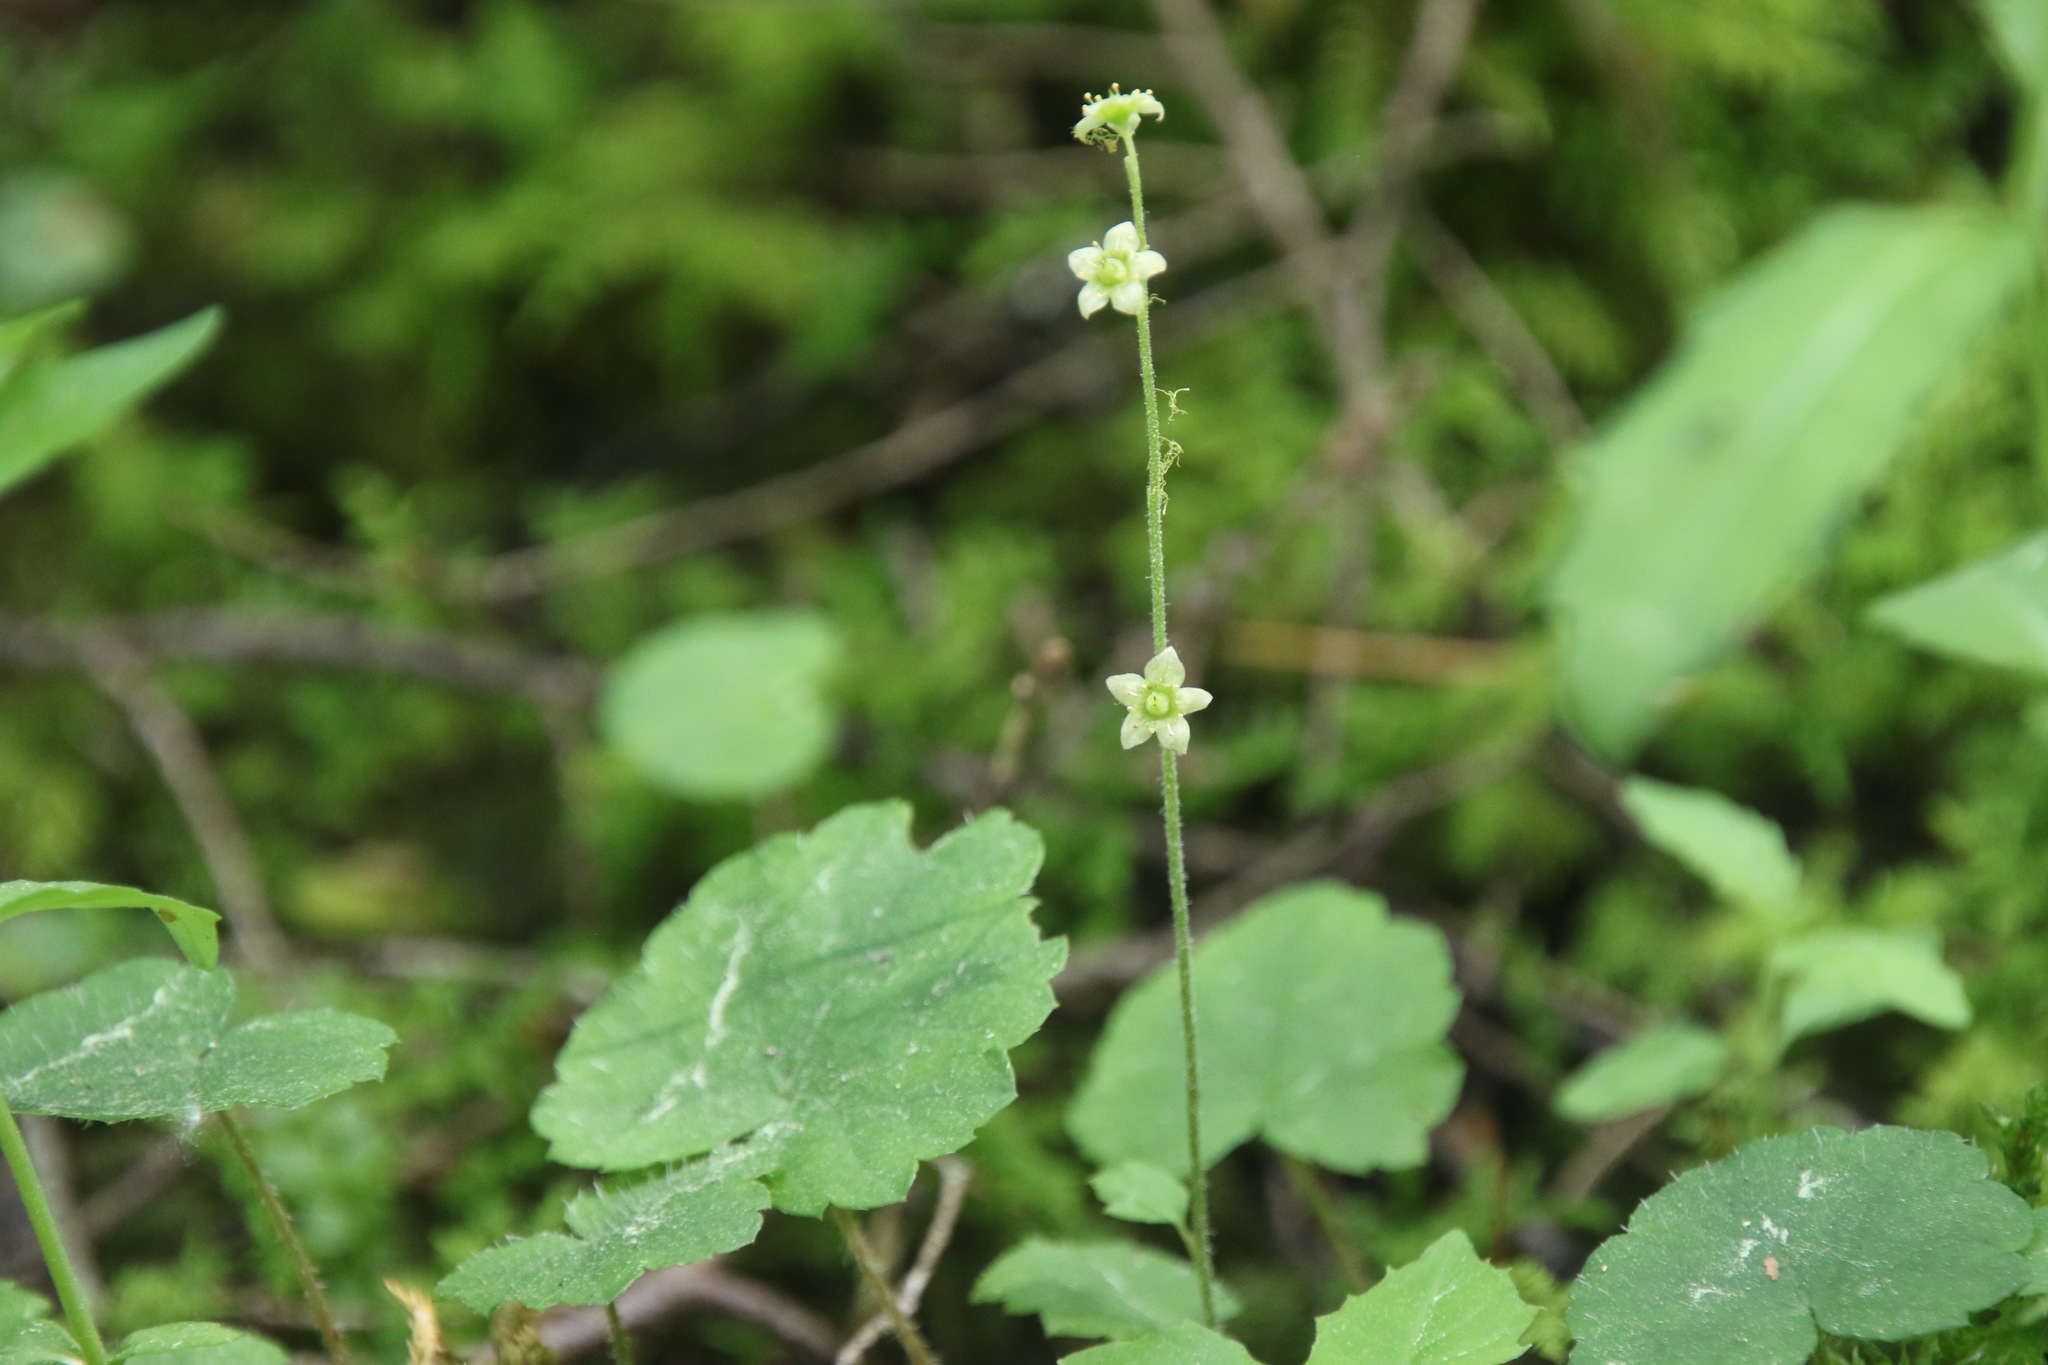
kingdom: Plantae
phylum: Tracheophyta
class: Magnoliopsida
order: Saxifragales
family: Saxifragaceae
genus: Mitella
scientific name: Mitella nuda
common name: Bare-stemmed bishop's-cap
